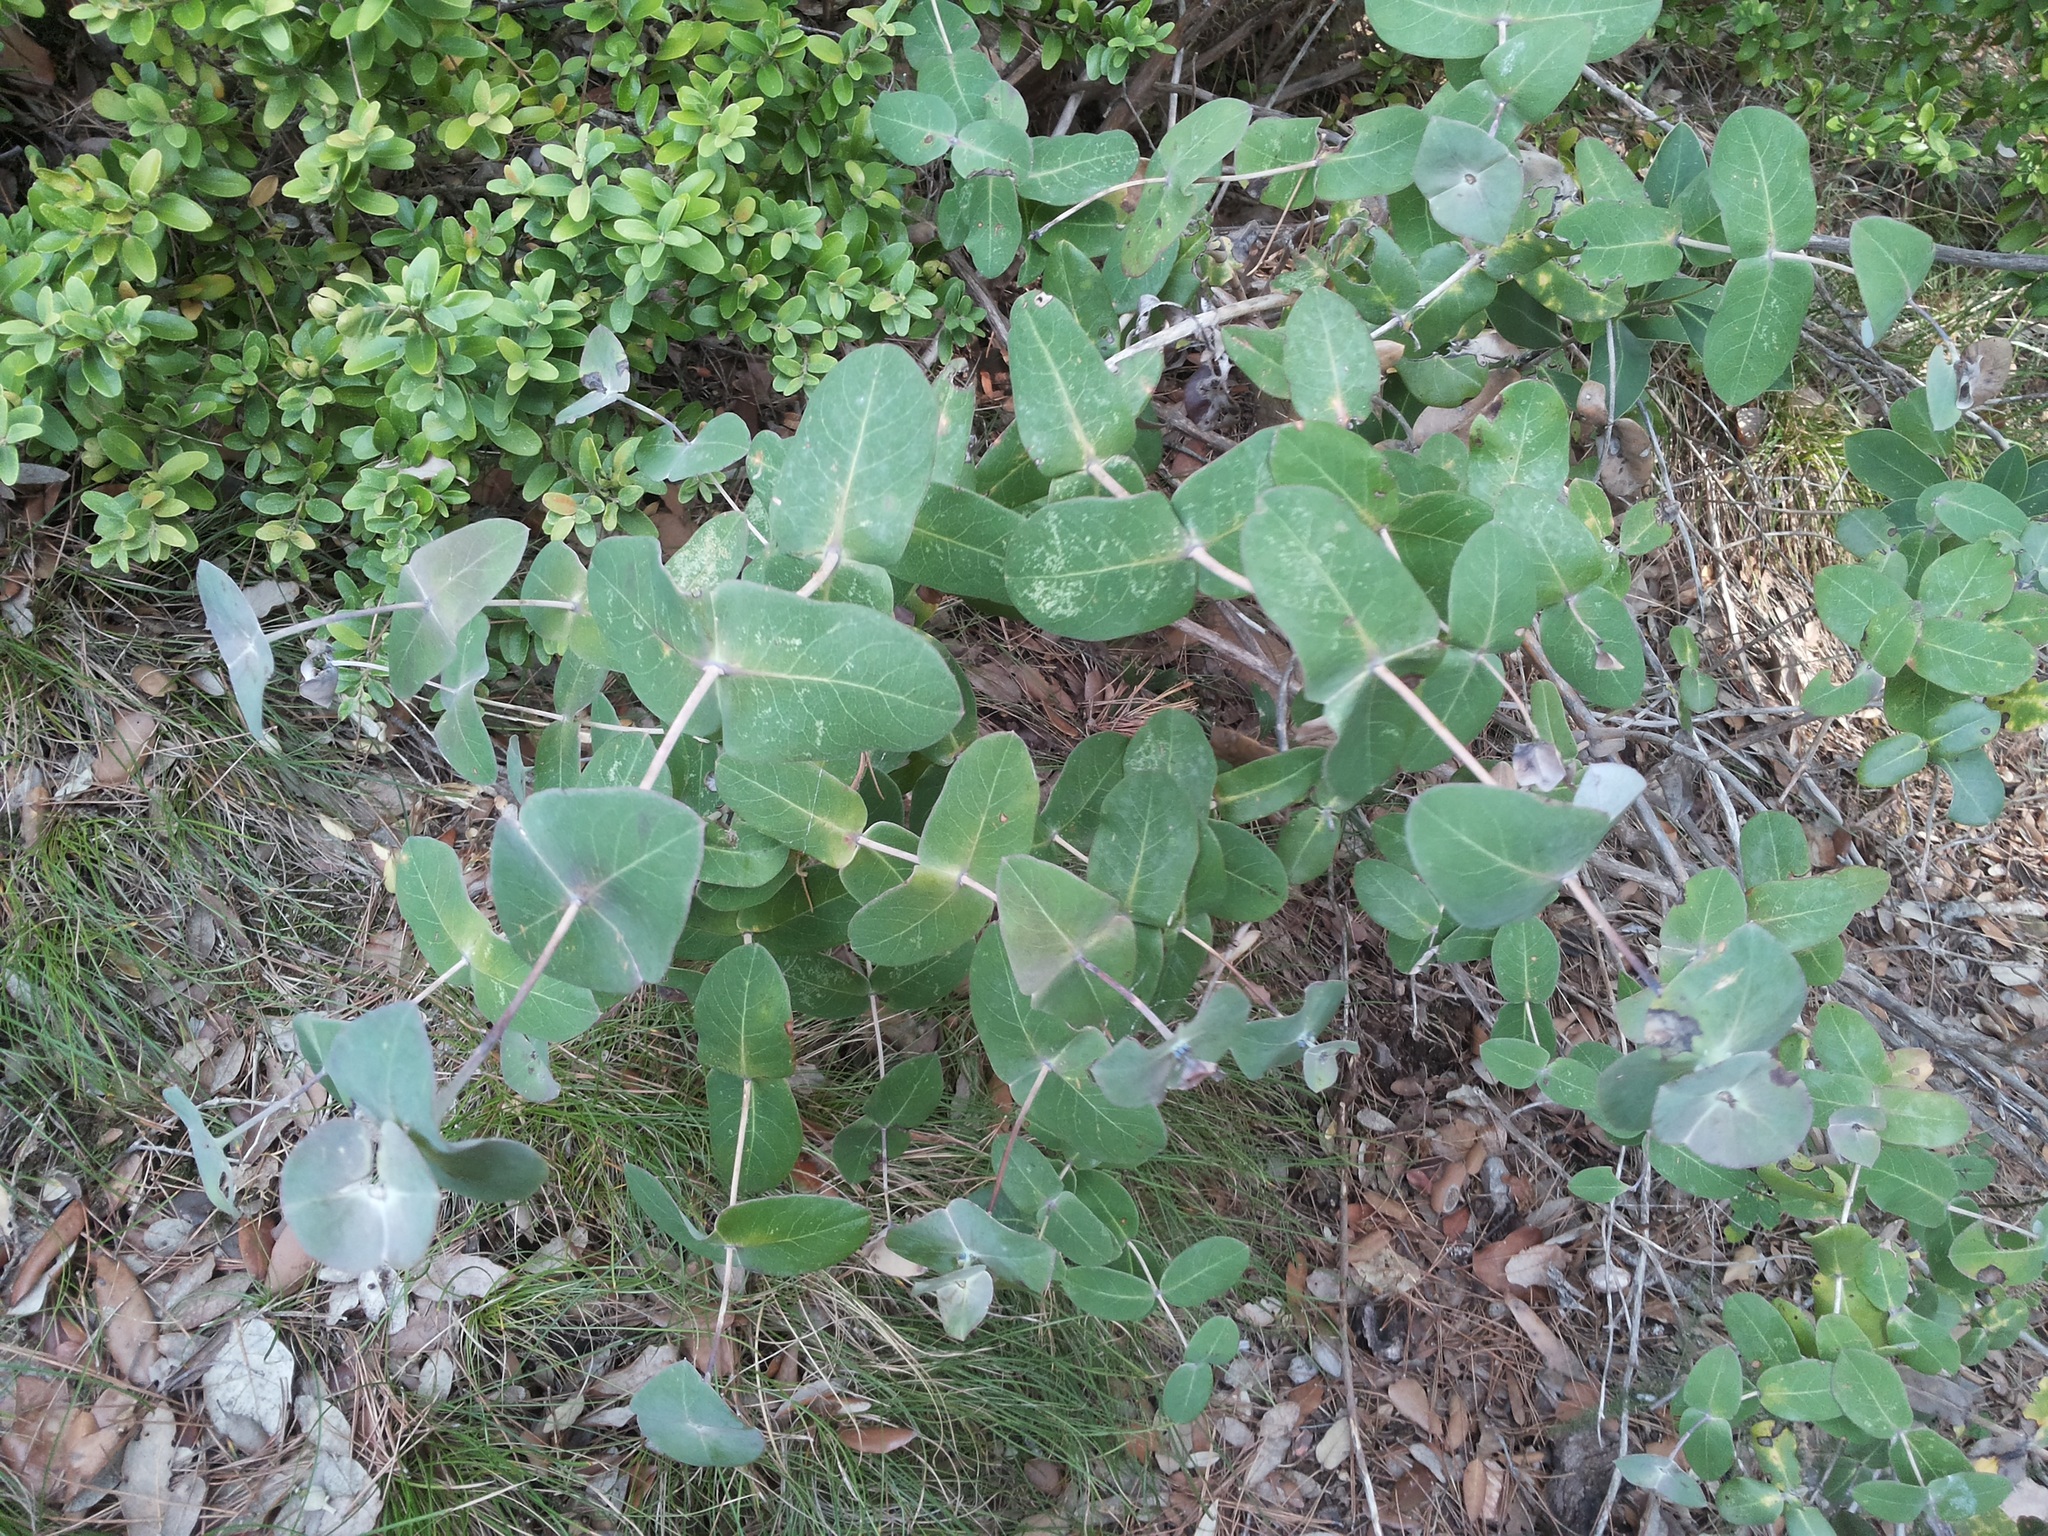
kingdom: Plantae
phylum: Tracheophyta
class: Magnoliopsida
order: Dipsacales
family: Caprifoliaceae
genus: Lonicera
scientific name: Lonicera implexa
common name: Minorca honeysuckle
